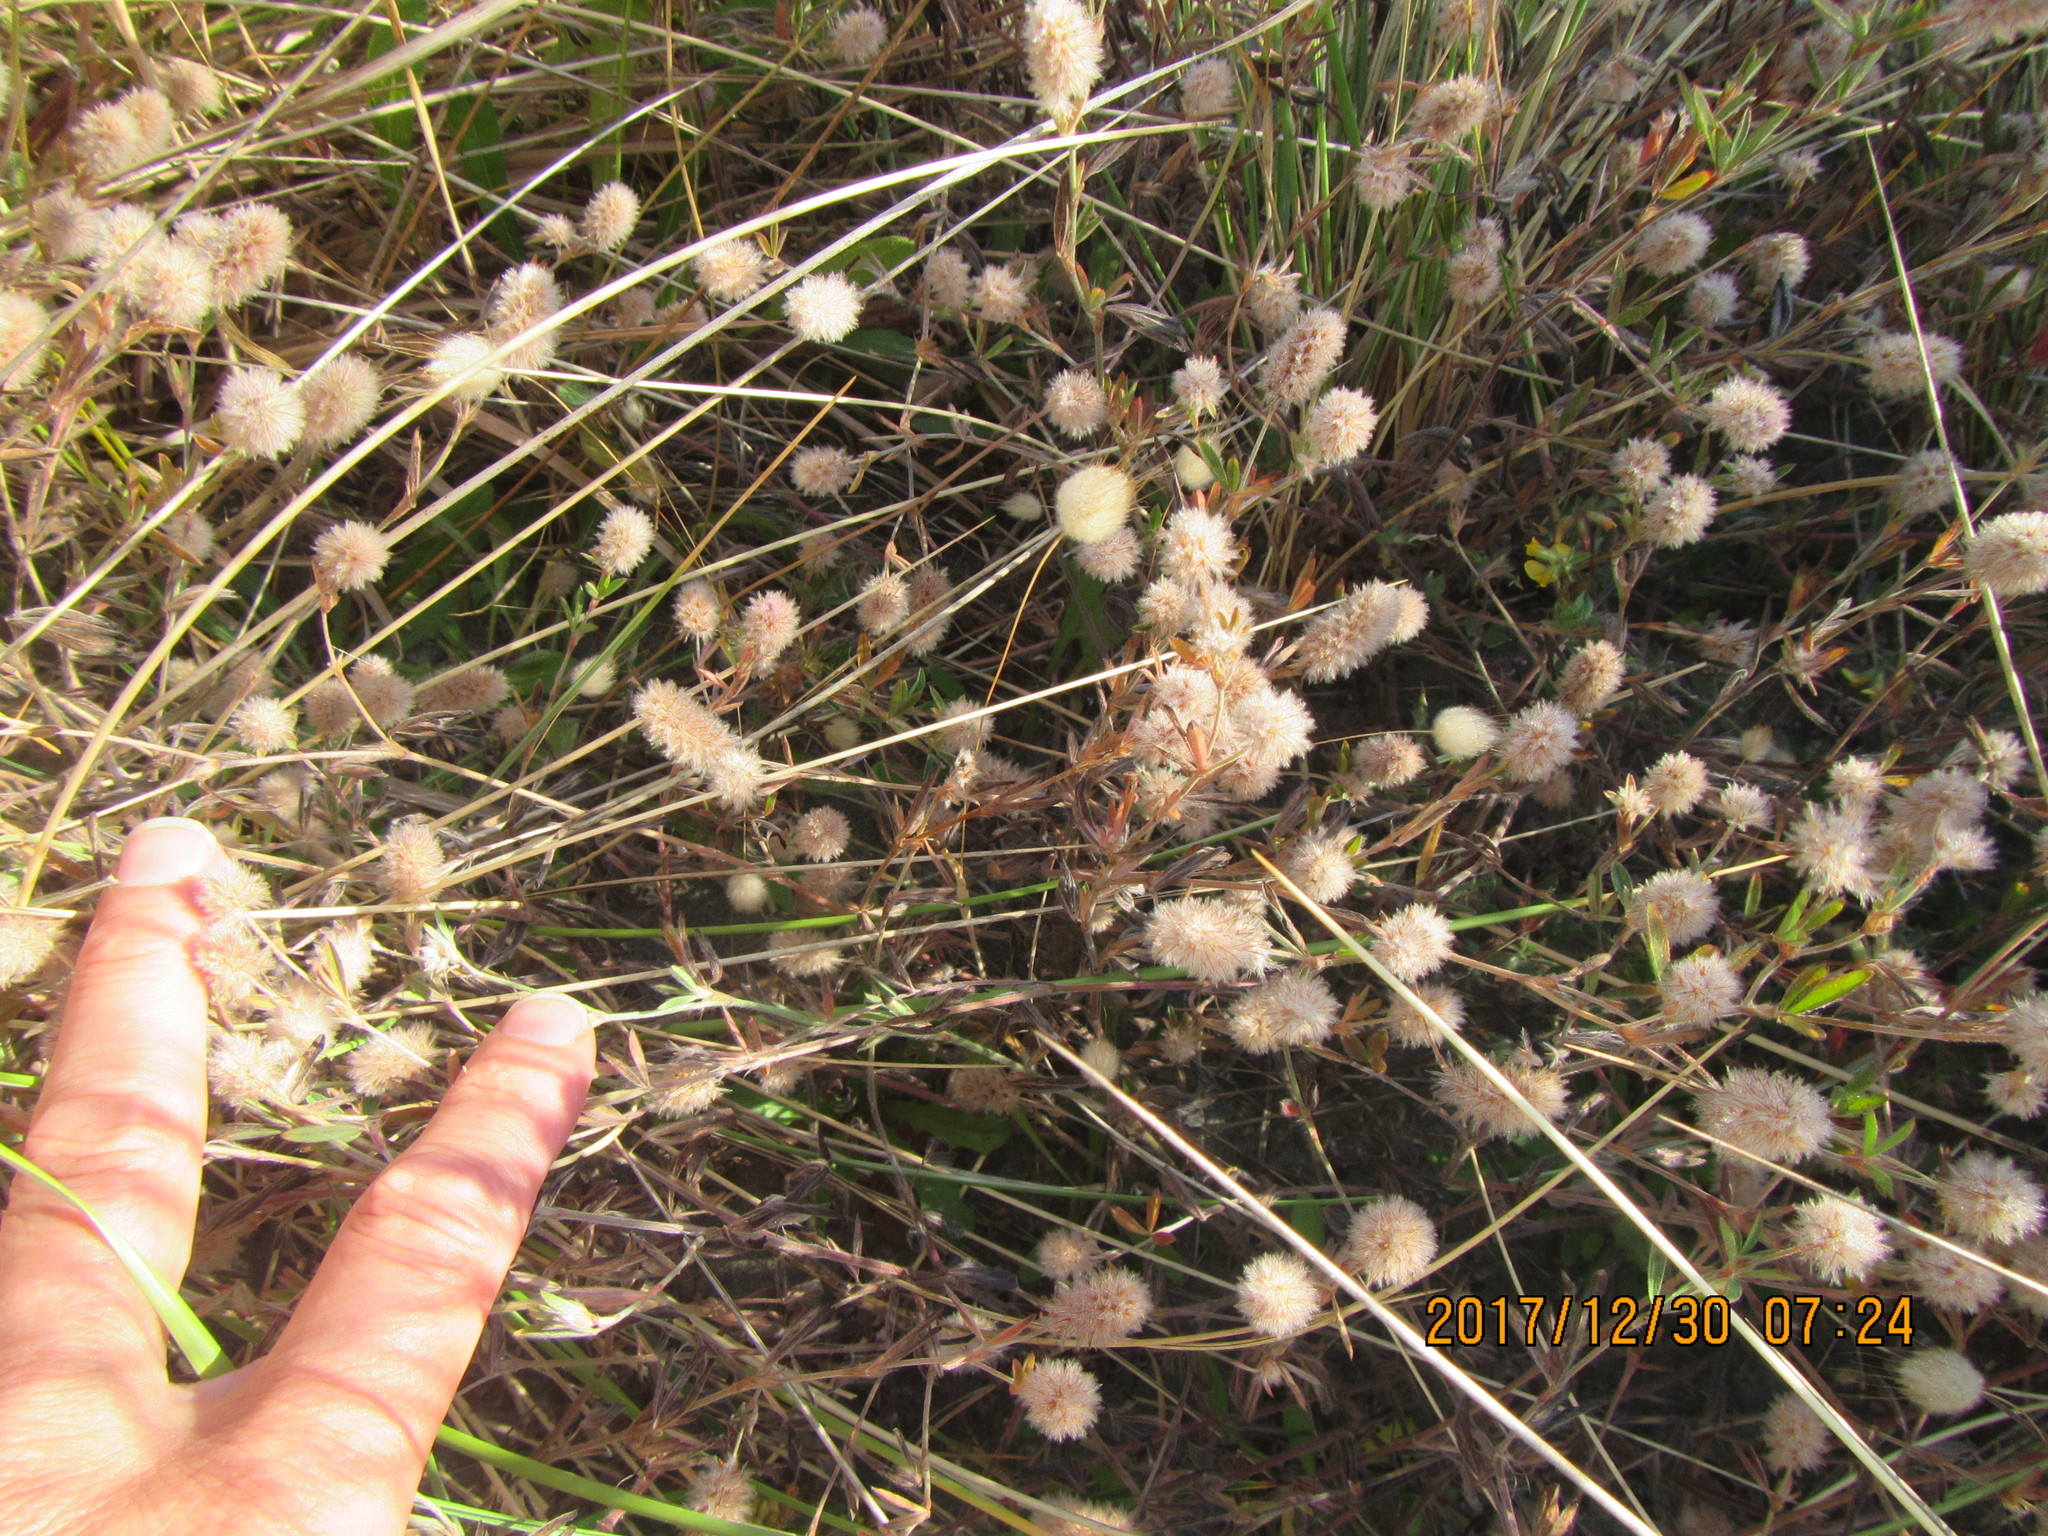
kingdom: Plantae
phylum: Tracheophyta
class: Magnoliopsida
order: Fabales
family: Fabaceae
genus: Trifolium
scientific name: Trifolium arvense
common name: Hare's-foot clover
